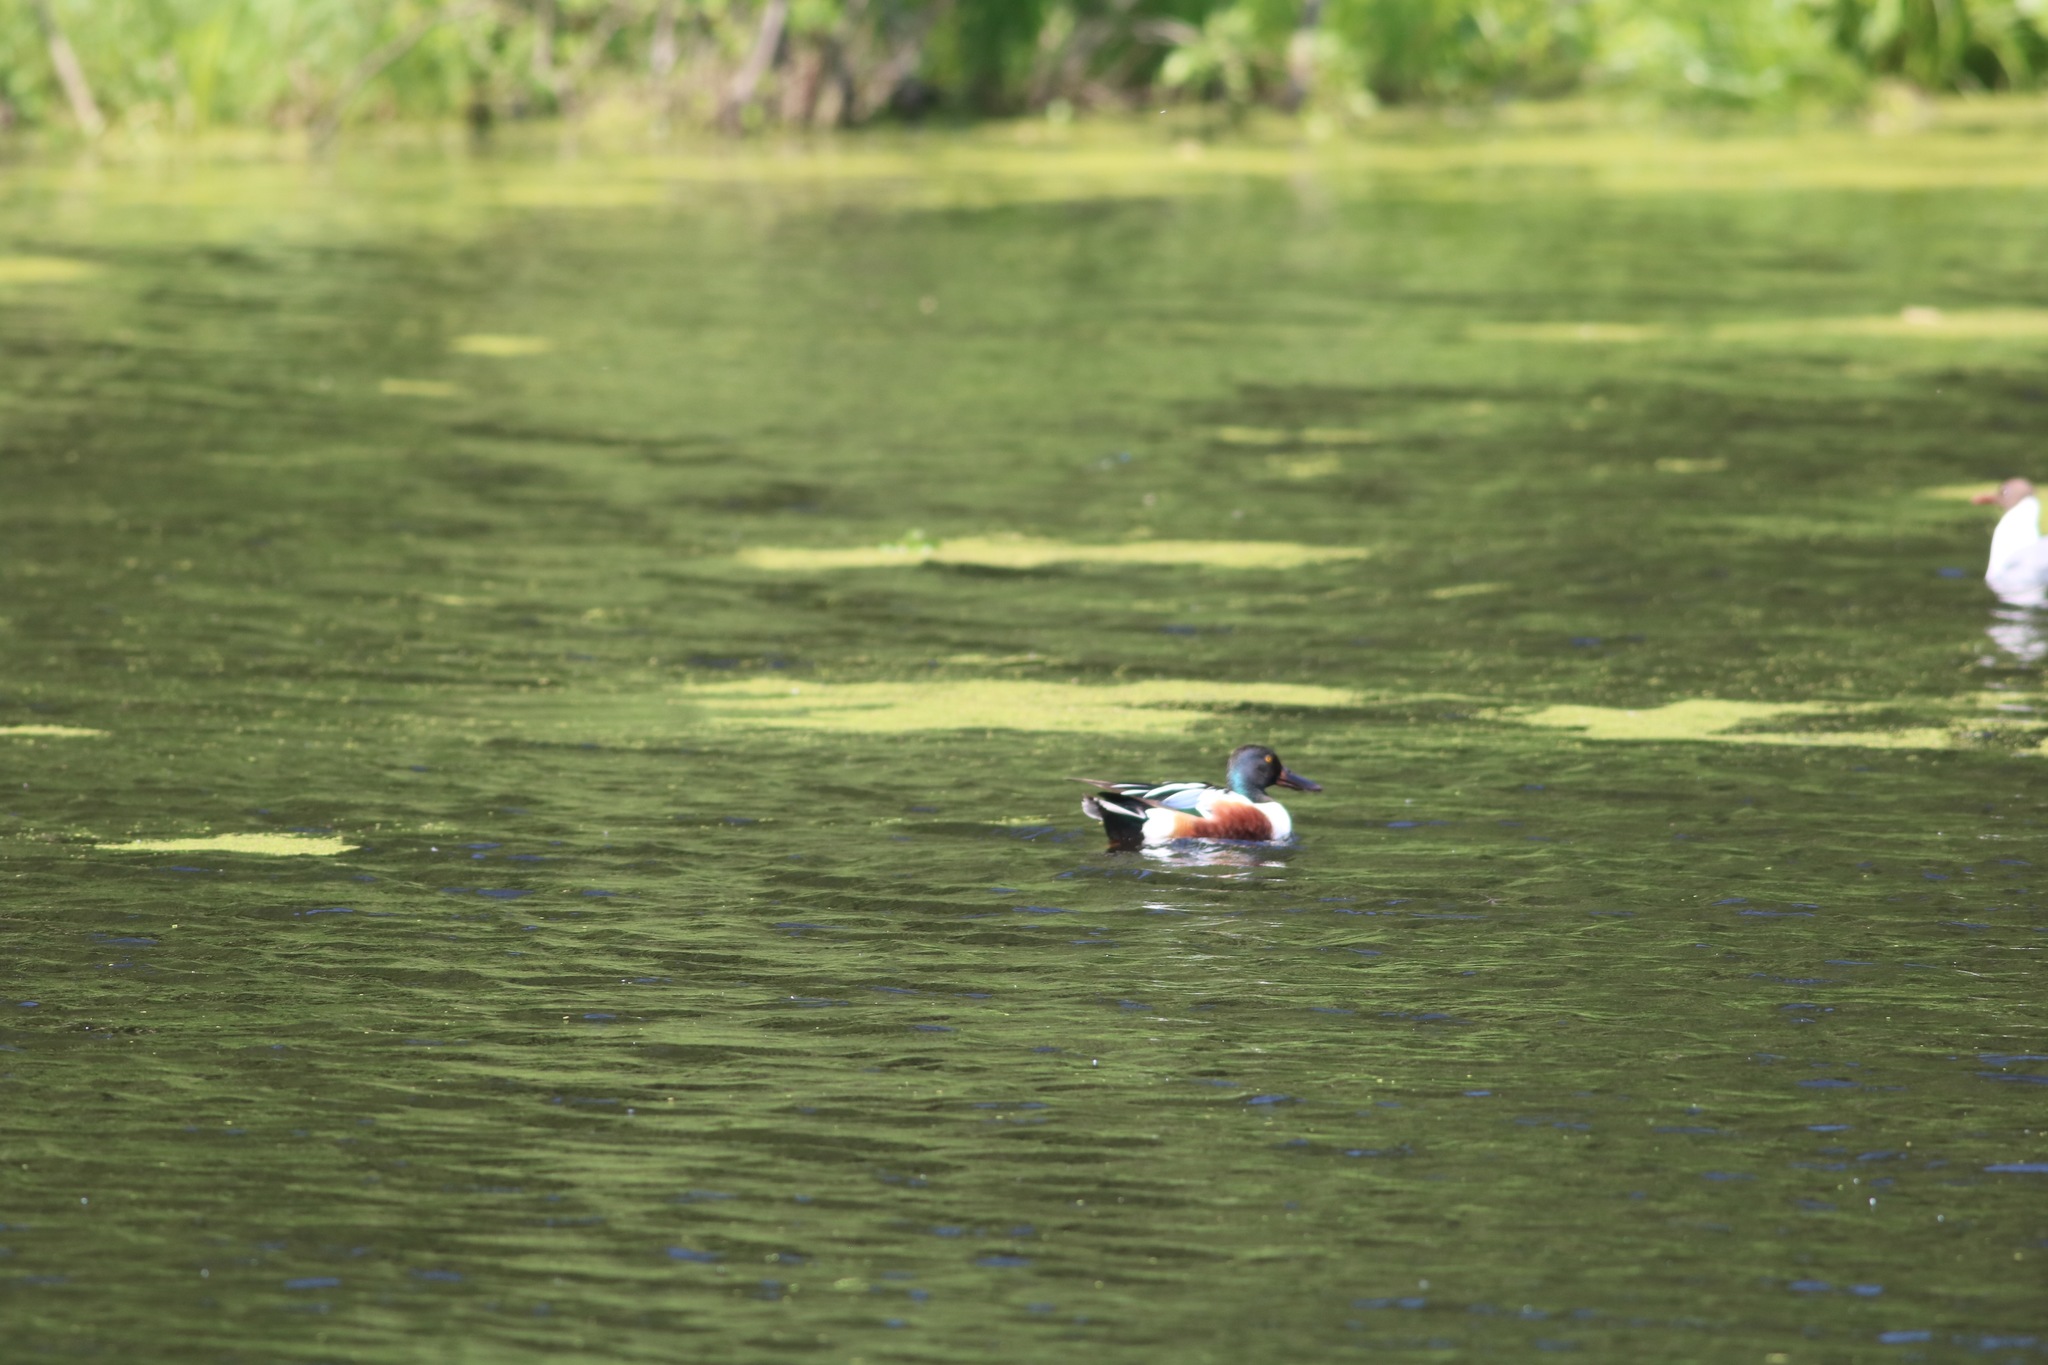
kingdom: Animalia
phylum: Chordata
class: Aves
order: Anseriformes
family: Anatidae
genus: Spatula
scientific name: Spatula clypeata
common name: Northern shoveler
